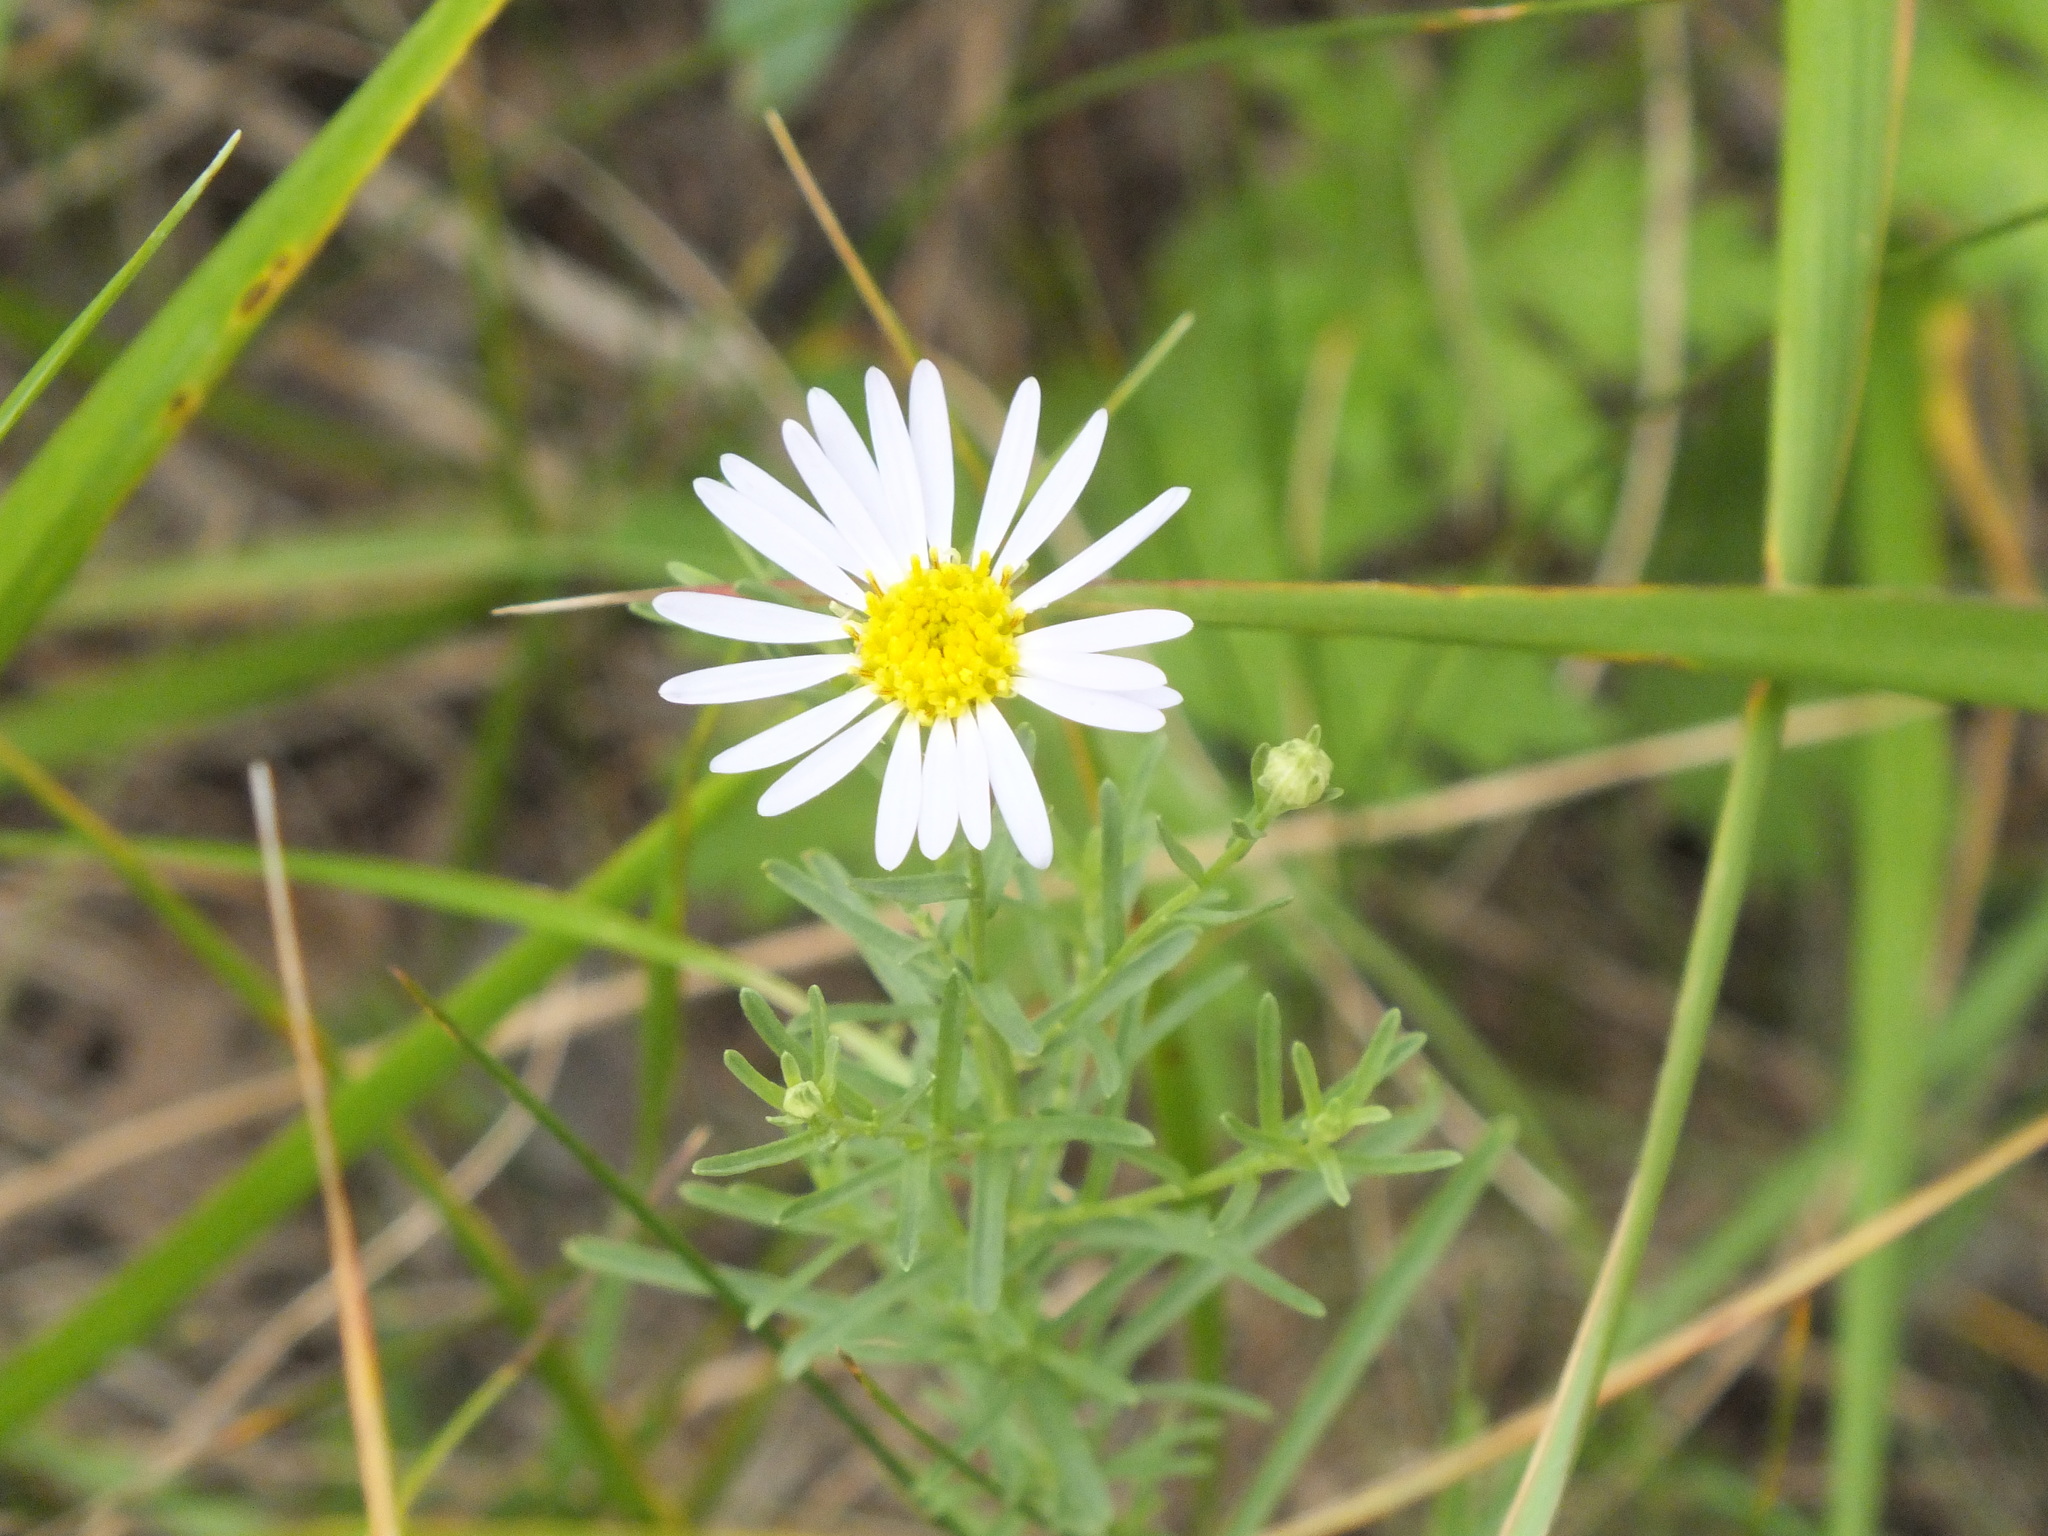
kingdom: Plantae
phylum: Tracheophyta
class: Magnoliopsida
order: Asterales
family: Asteraceae
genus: Heteropappus
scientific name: Heteropappus altaicus
